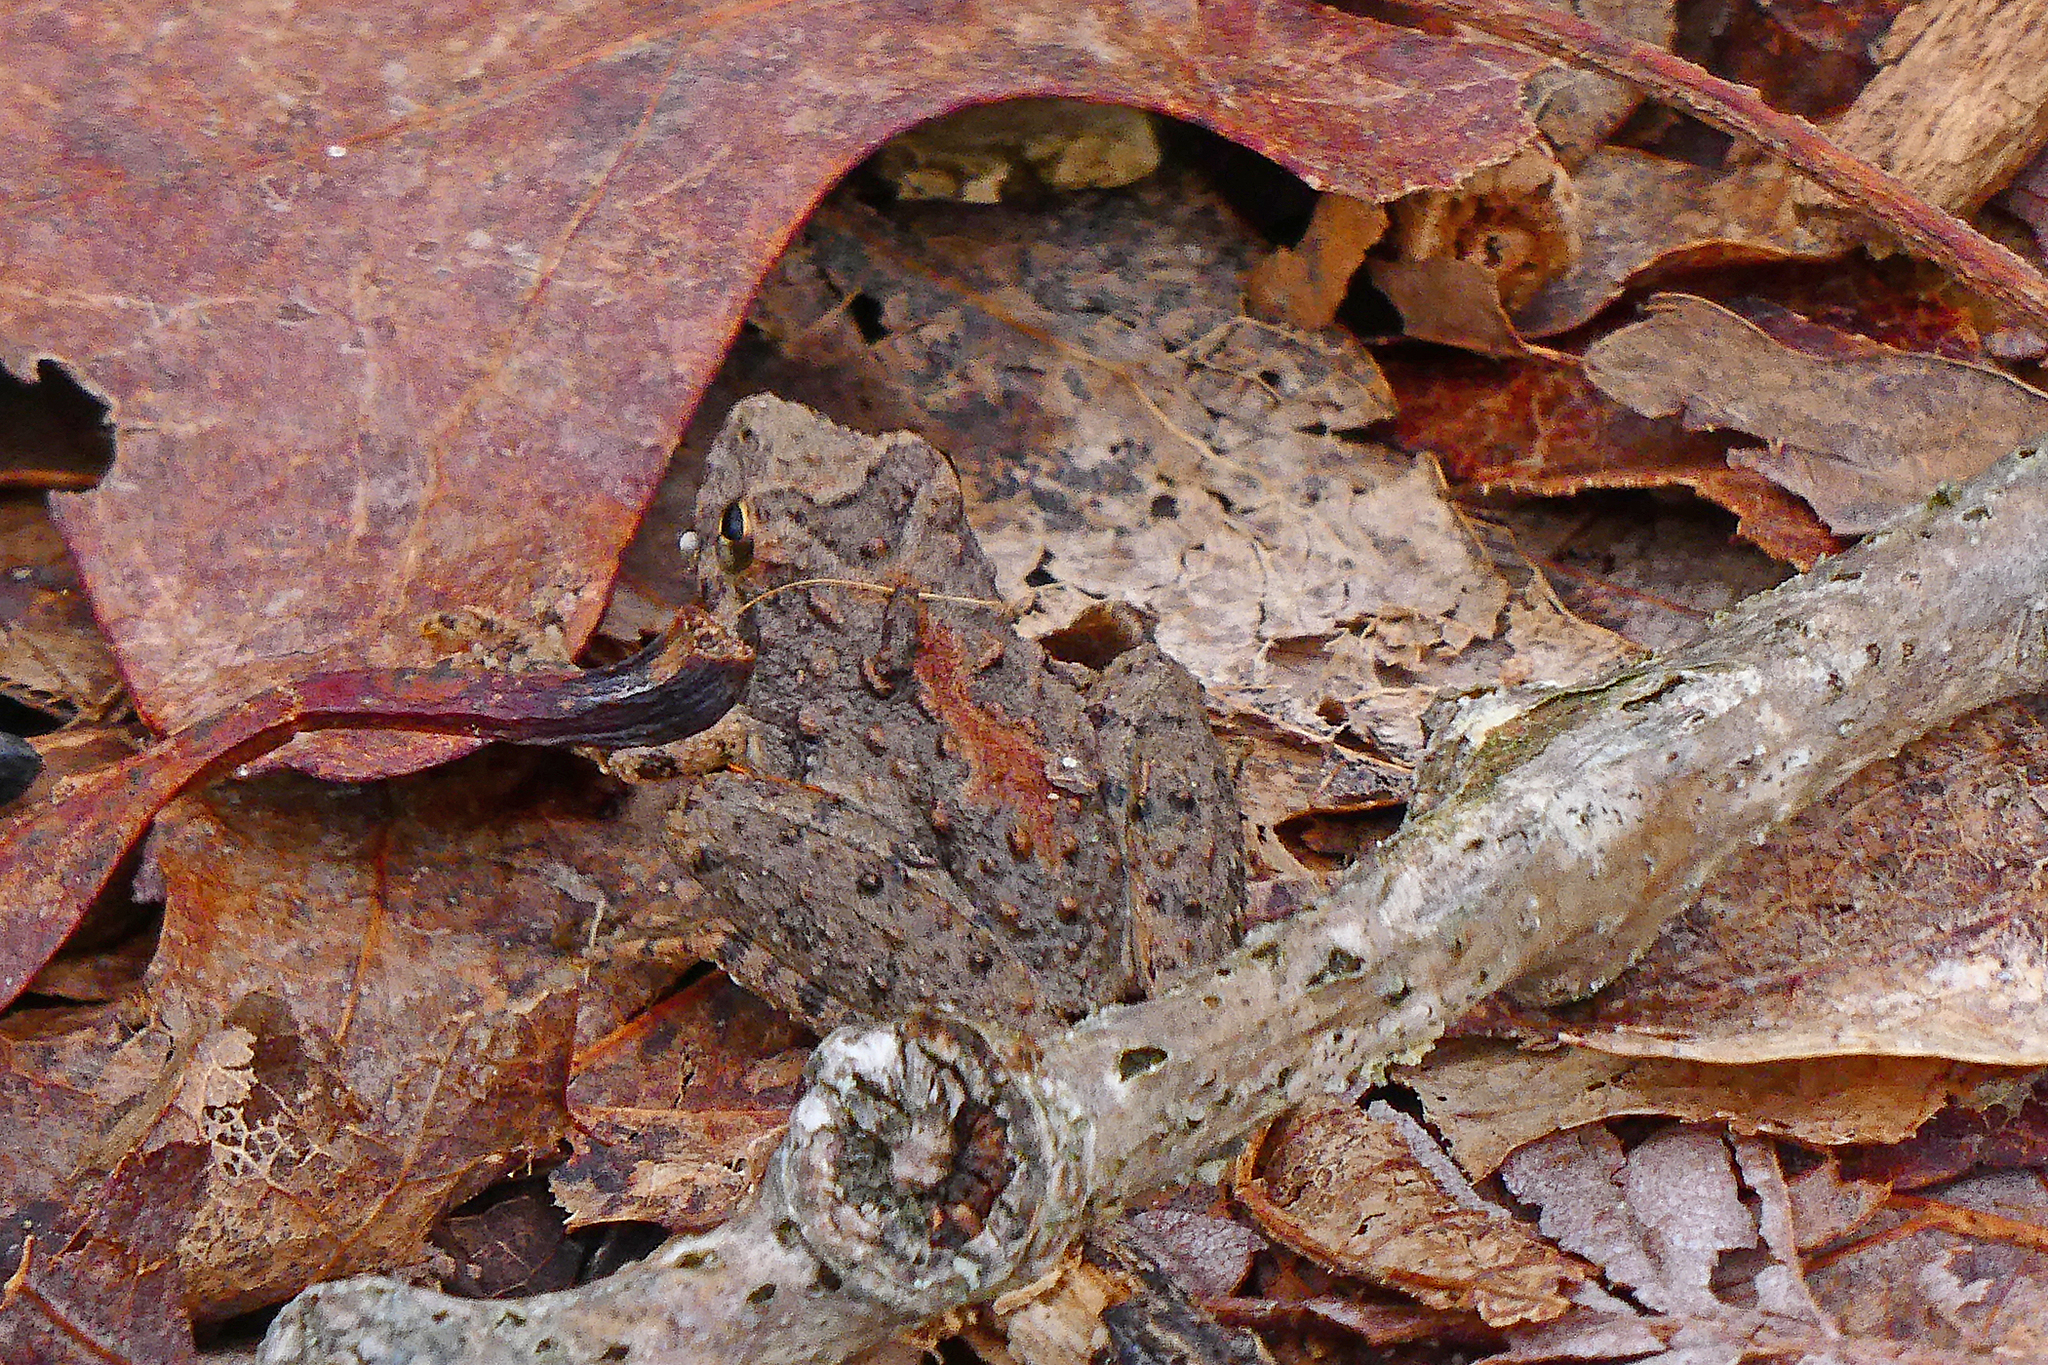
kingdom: Animalia
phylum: Chordata
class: Amphibia
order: Anura
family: Hylidae
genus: Acris
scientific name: Acris blanchardi
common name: Blanchard's cricket frog
